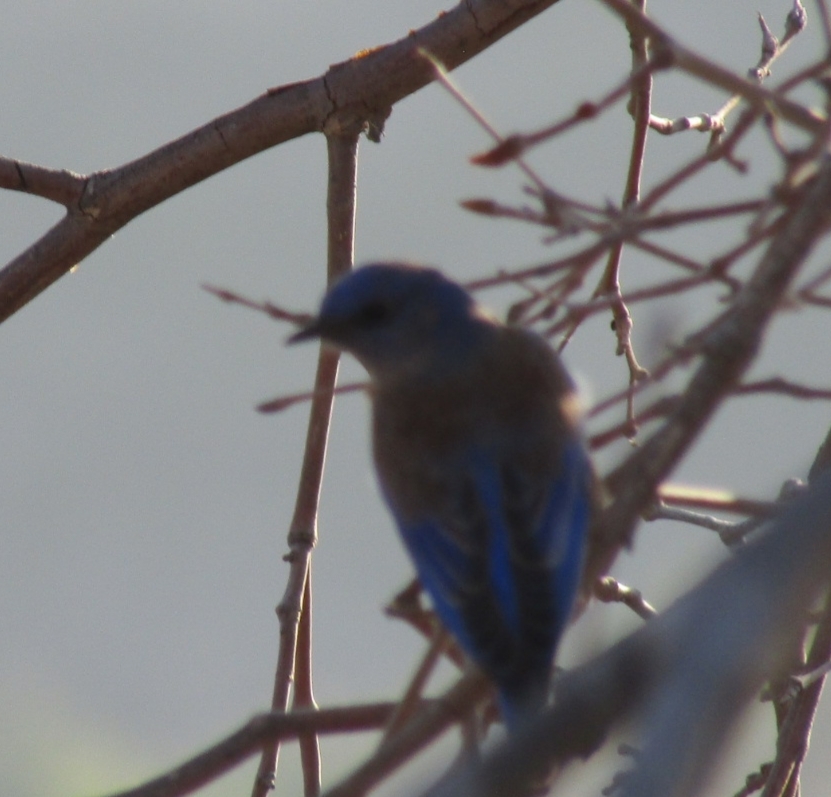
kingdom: Animalia
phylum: Chordata
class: Aves
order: Passeriformes
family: Turdidae
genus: Sialia
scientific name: Sialia mexicana
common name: Western bluebird
